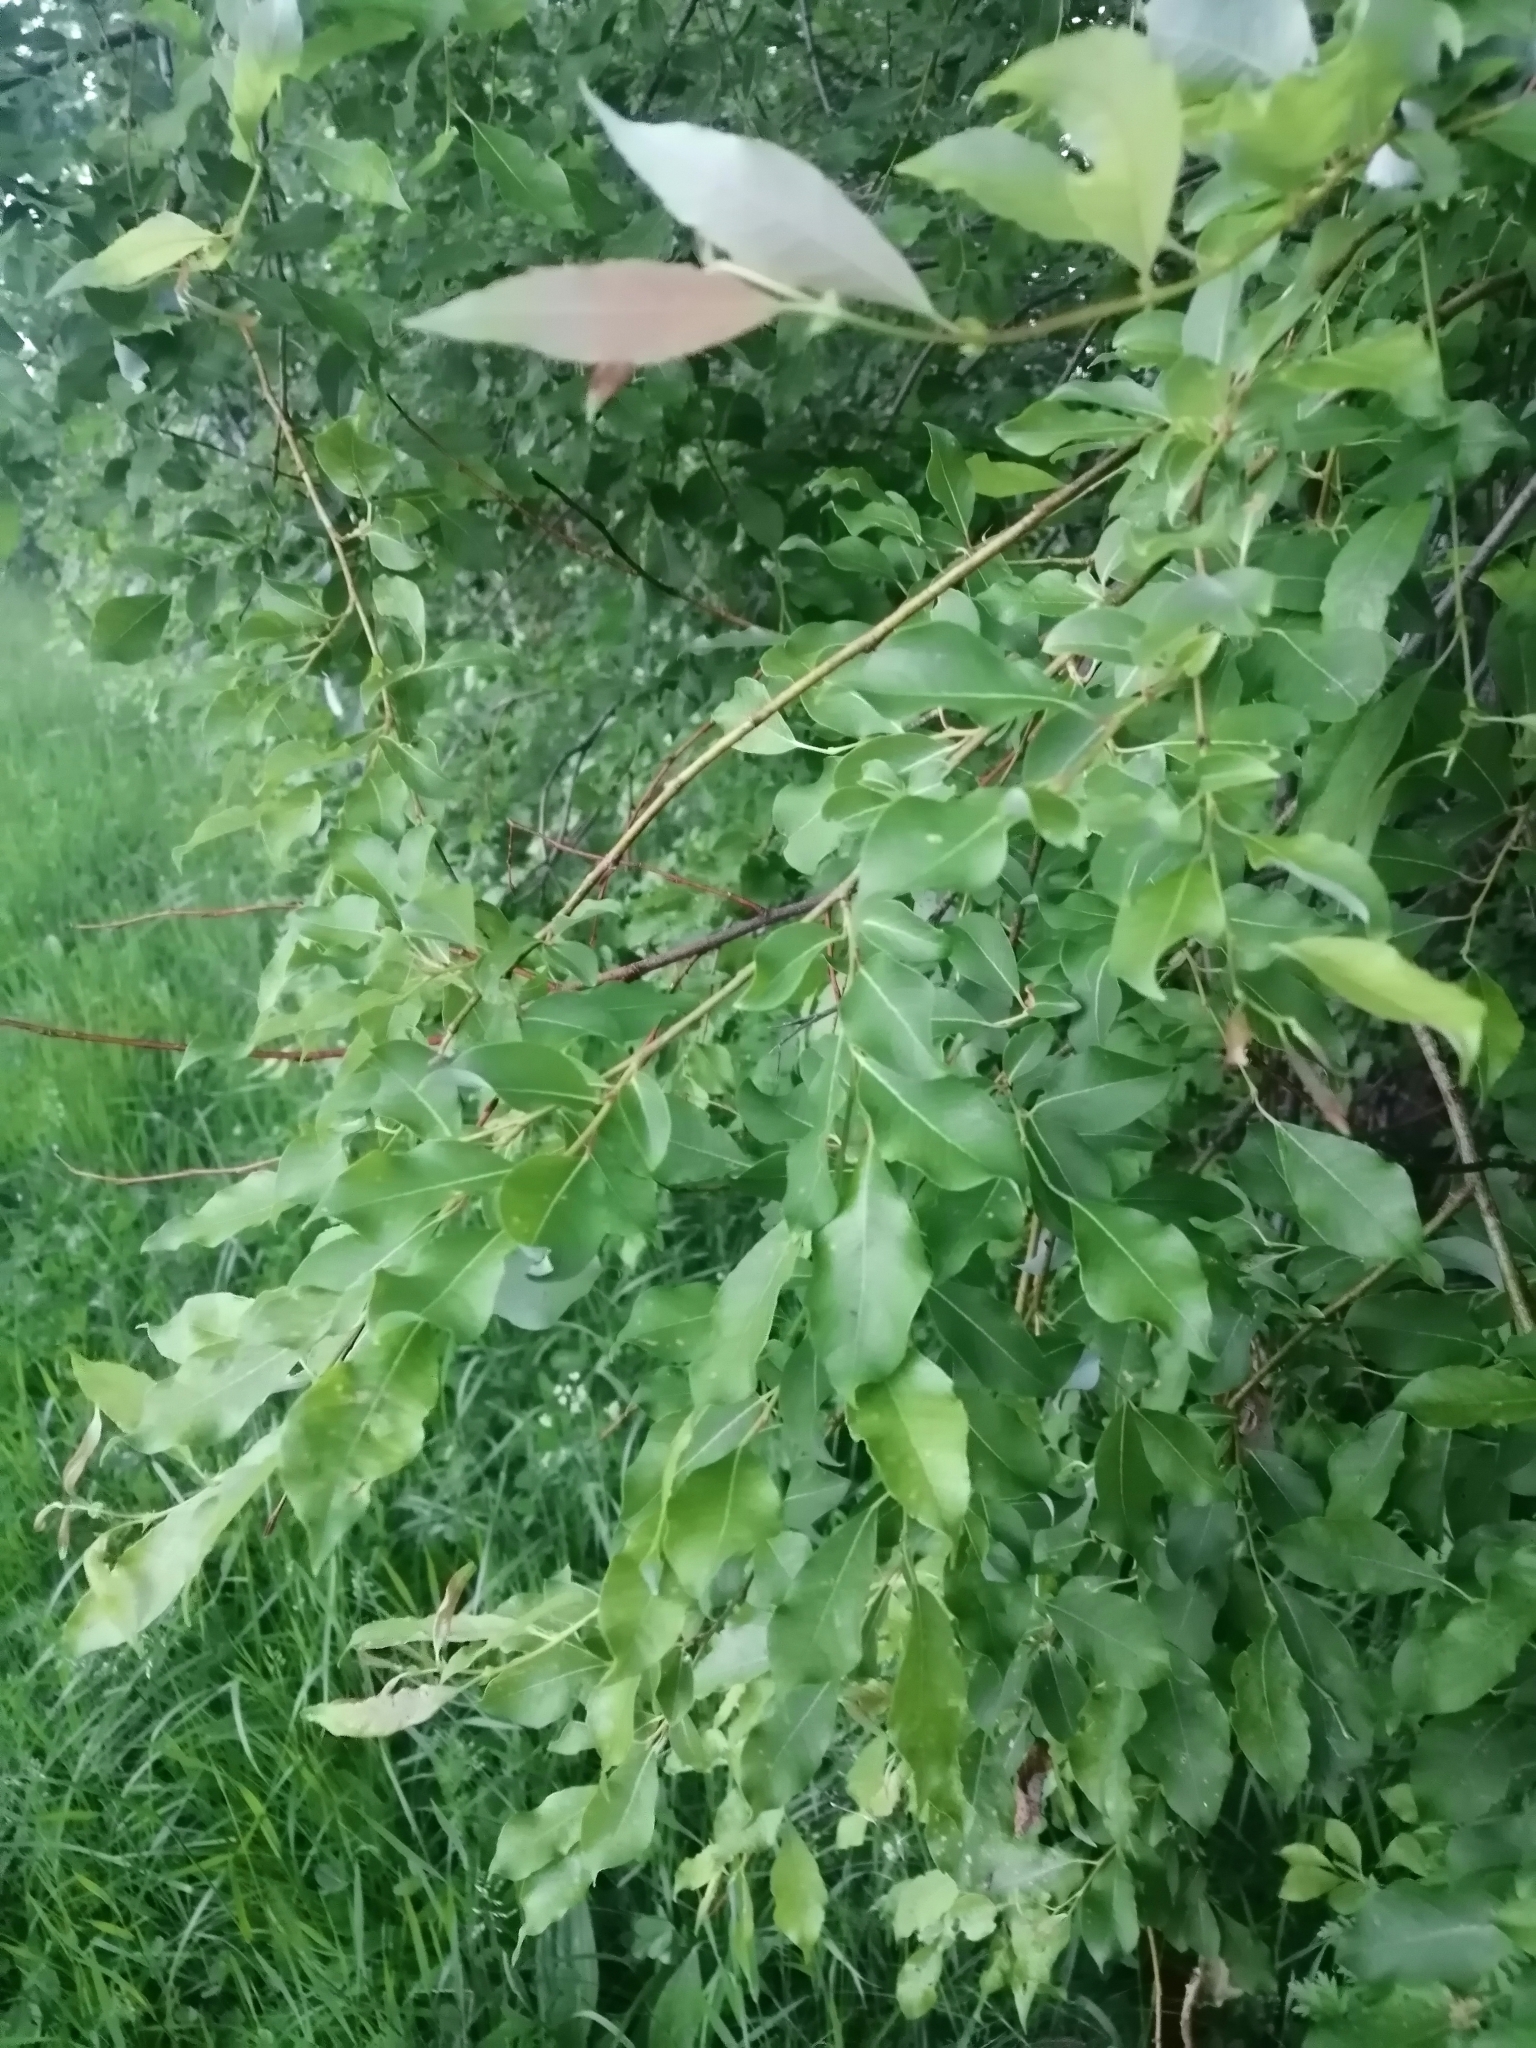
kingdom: Plantae
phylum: Tracheophyta
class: Magnoliopsida
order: Malpighiales
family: Salicaceae
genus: Salix
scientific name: Salix taraikensis
